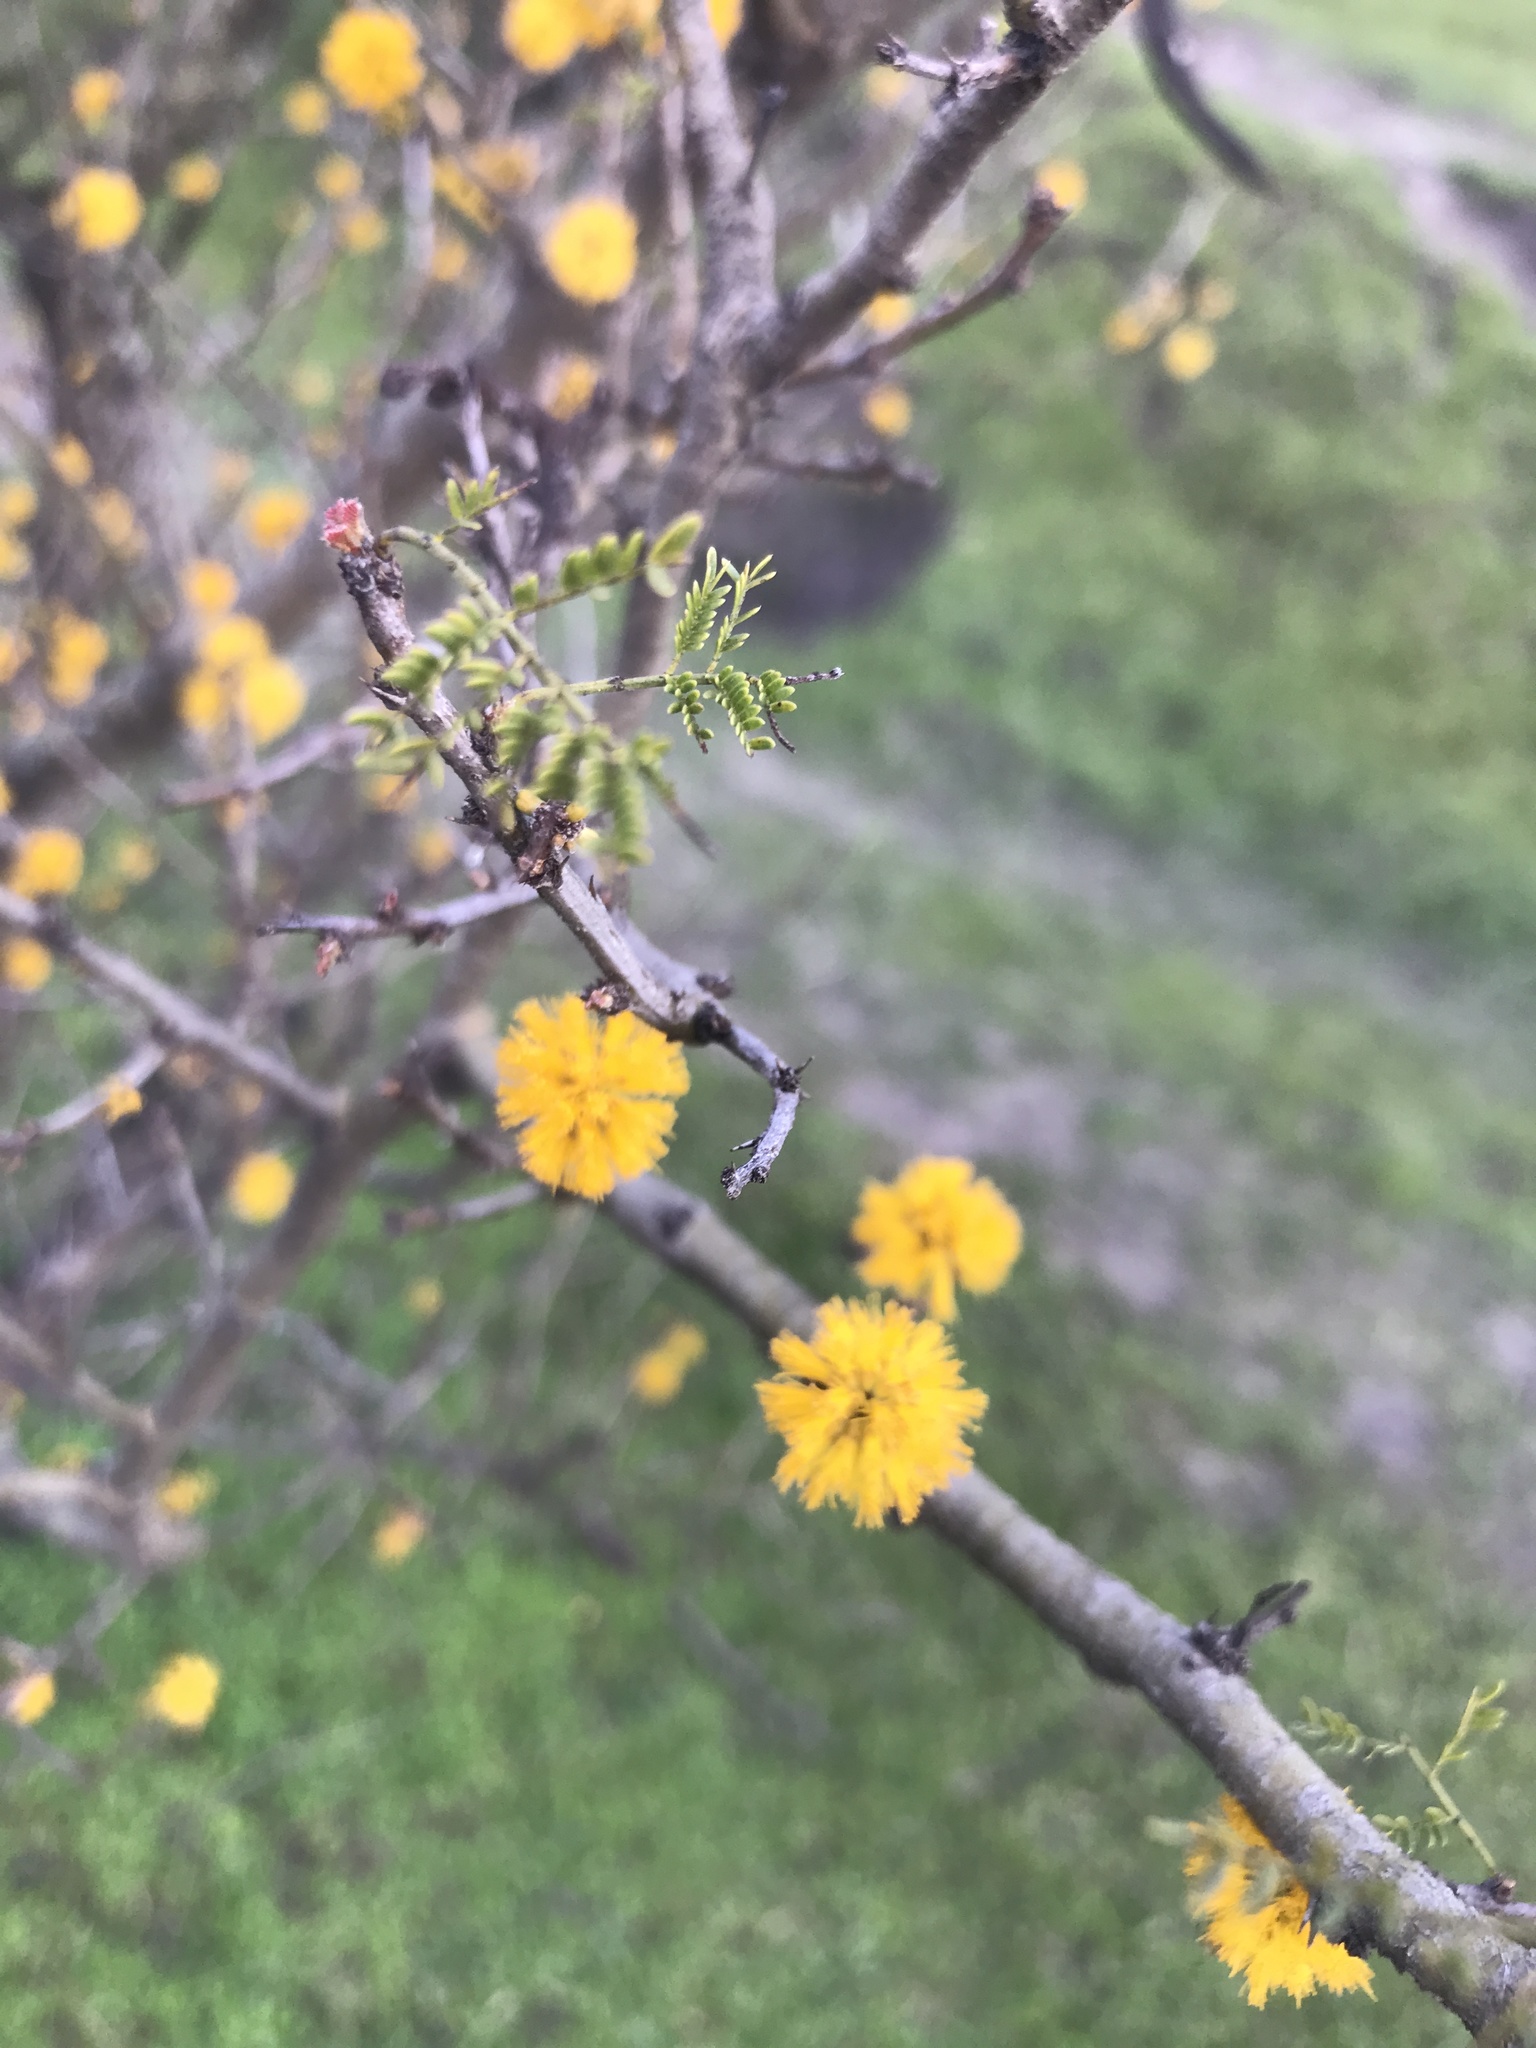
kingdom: Plantae
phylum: Tracheophyta
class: Magnoliopsida
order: Fabales
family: Fabaceae
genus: Vachellia
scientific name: Vachellia caven
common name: Roman cassie
